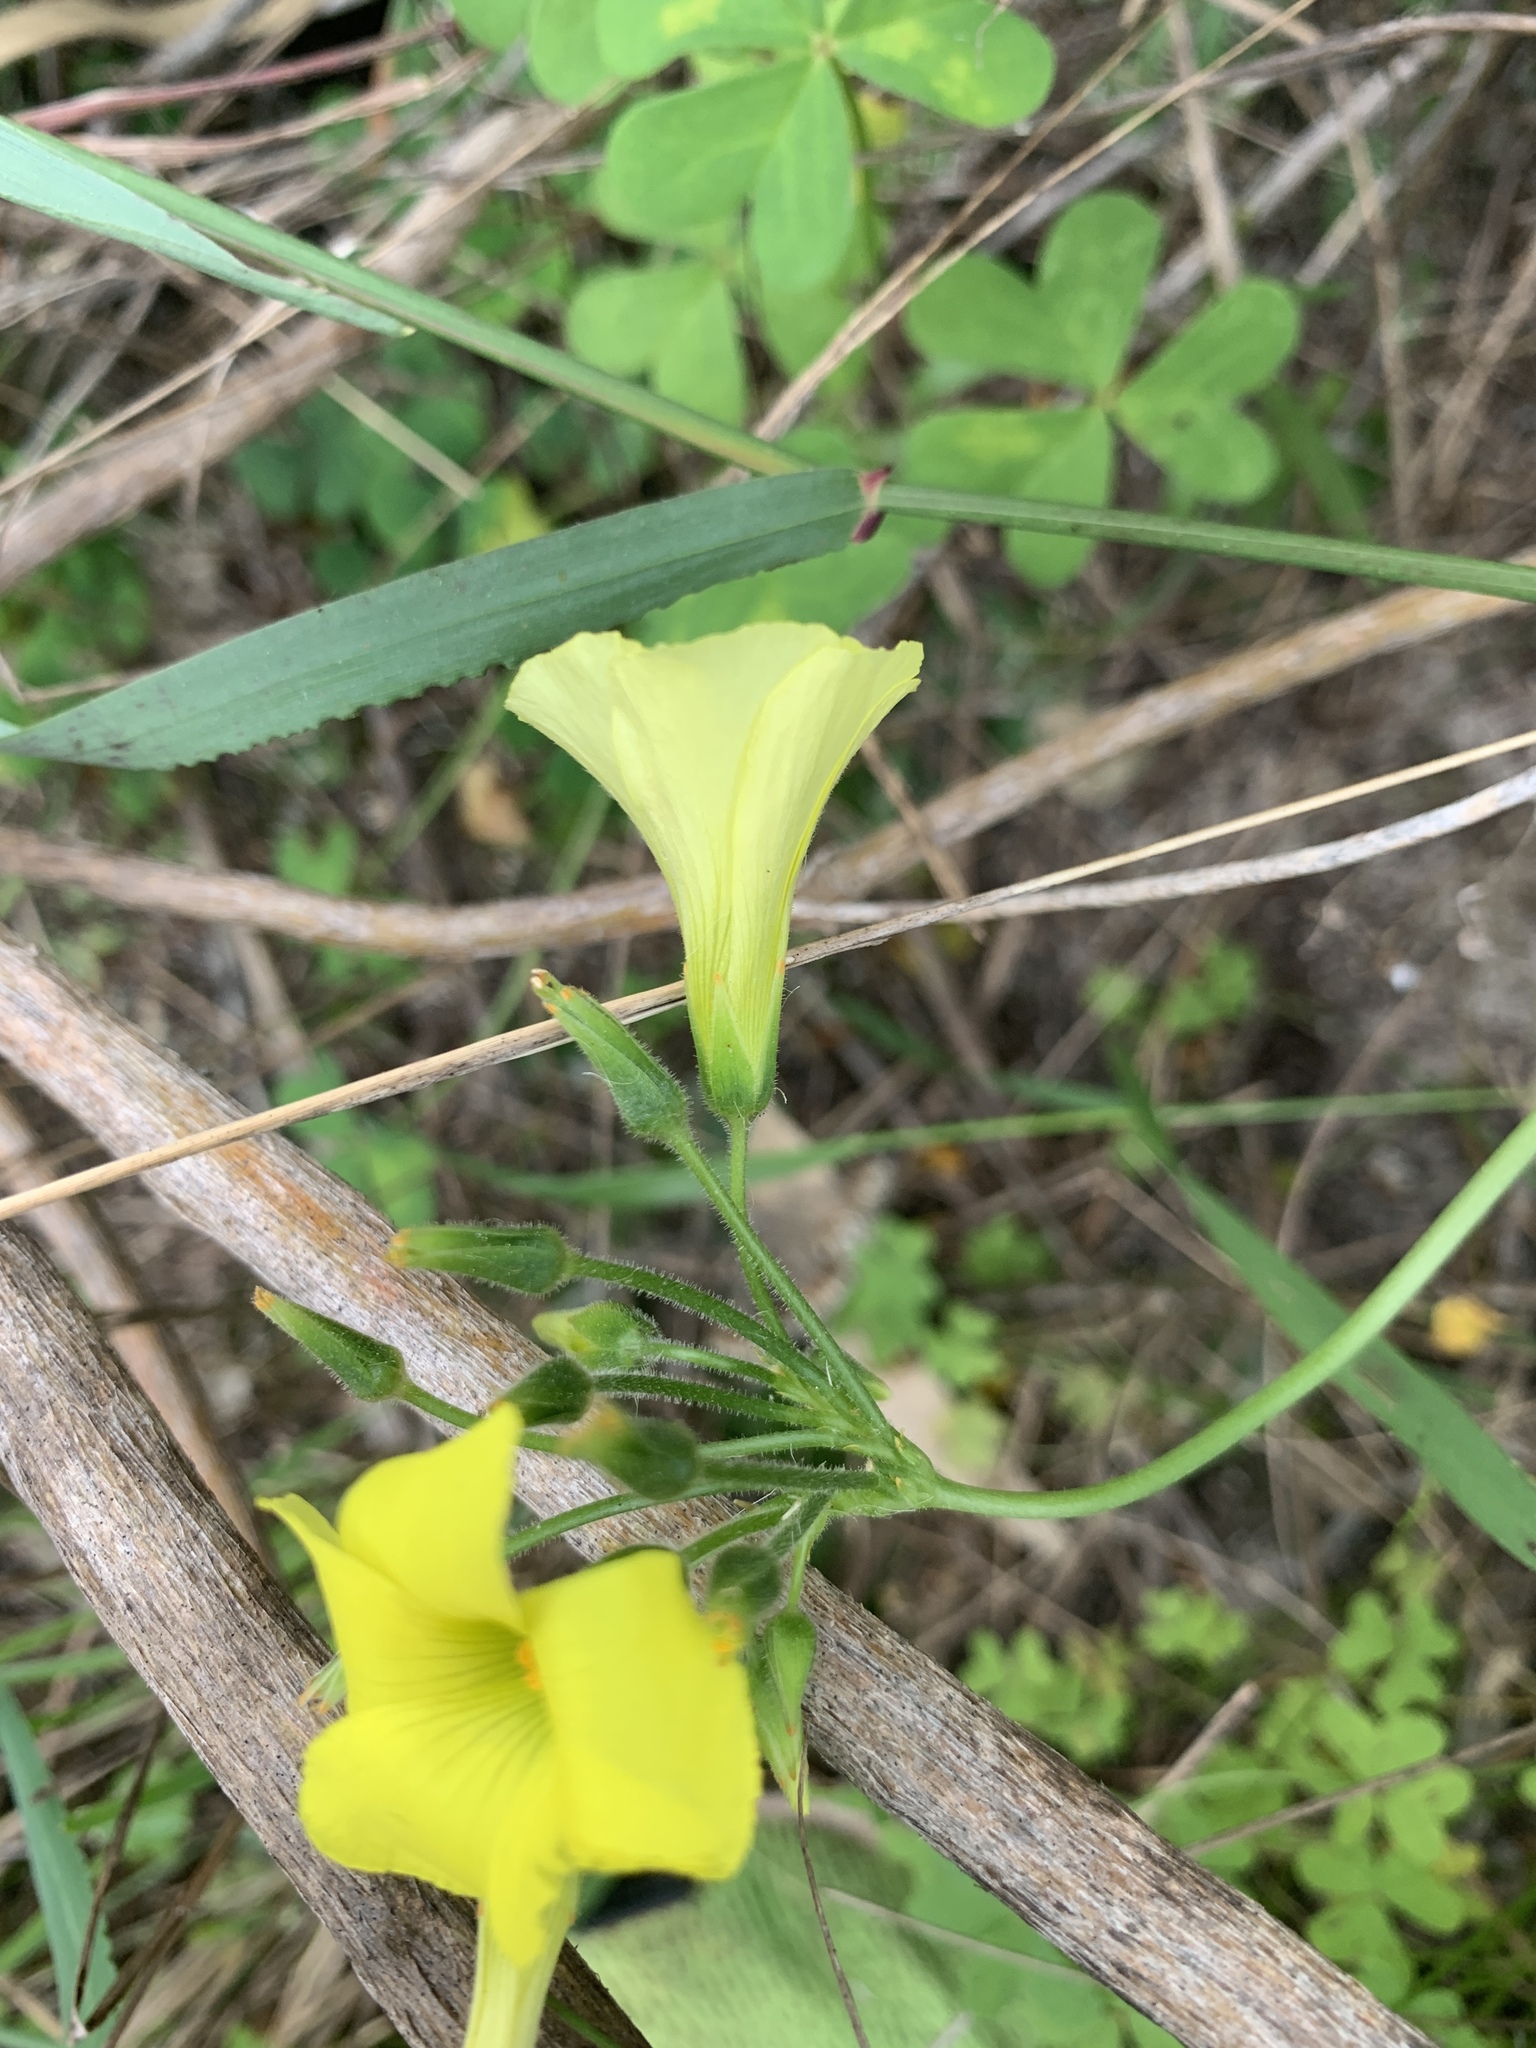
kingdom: Plantae
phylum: Tracheophyta
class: Magnoliopsida
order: Oxalidales
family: Oxalidaceae
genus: Oxalis
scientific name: Oxalis pes-caprae
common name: Bermuda-buttercup
